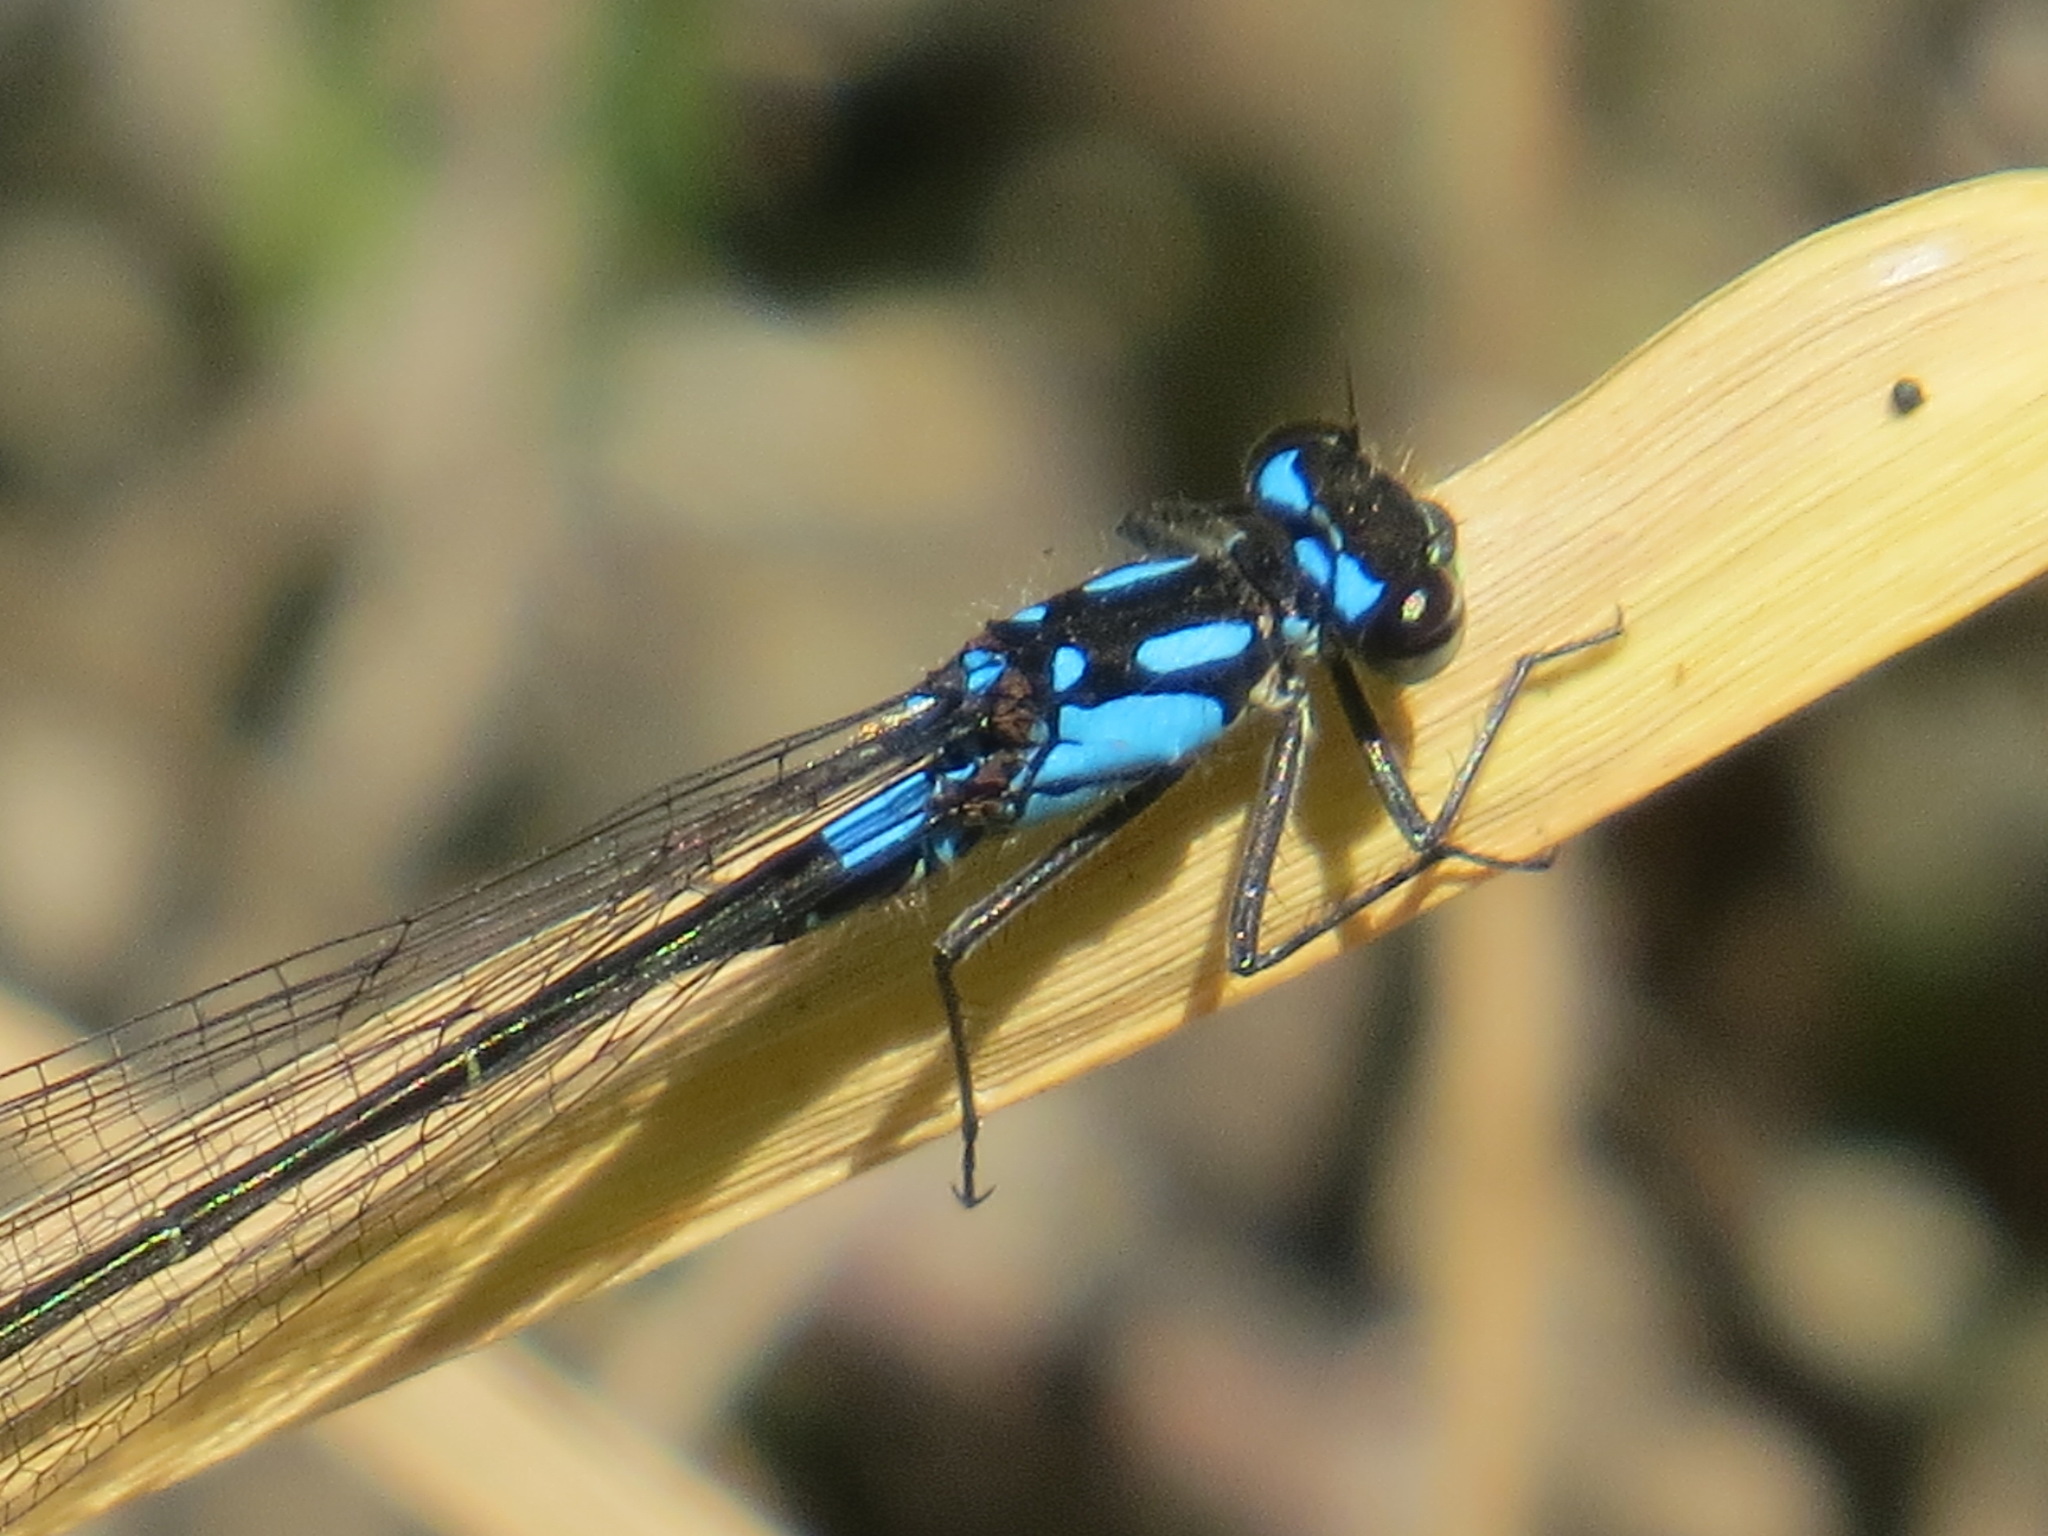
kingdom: Animalia
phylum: Arthropoda
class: Insecta
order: Odonata
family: Coenagrionidae
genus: Zoniagrion
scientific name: Zoniagrion exclamationis
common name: Exclamation damsel
